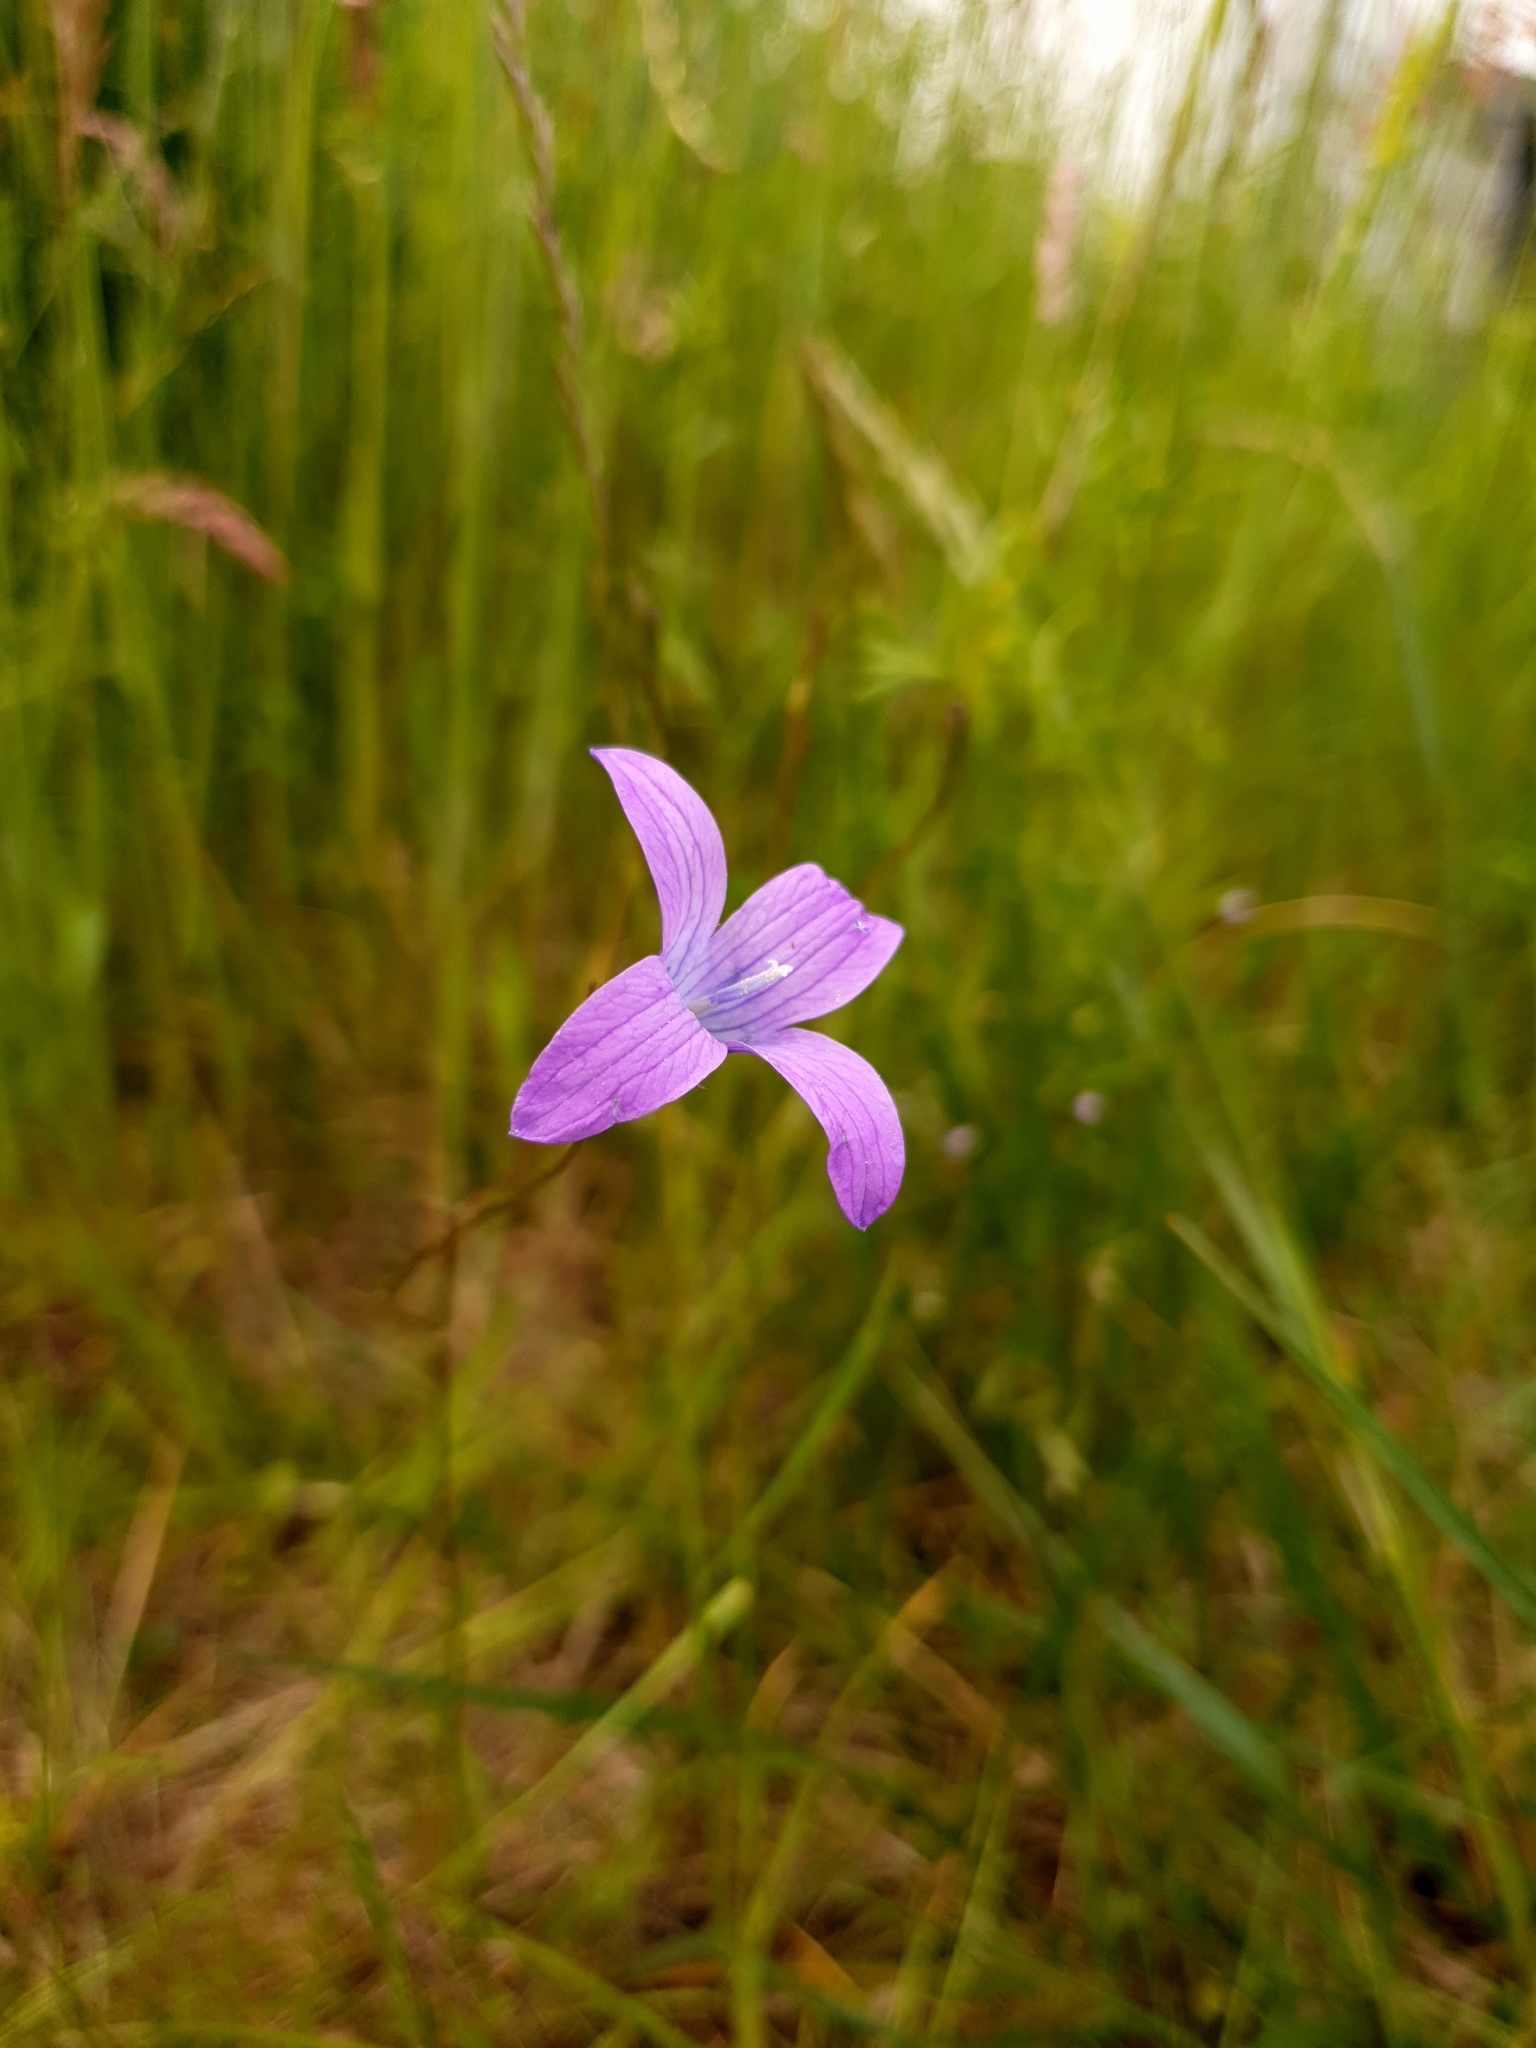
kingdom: Plantae
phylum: Tracheophyta
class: Magnoliopsida
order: Asterales
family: Campanulaceae
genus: Campanula
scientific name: Campanula patula
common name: Spreading bellflower
